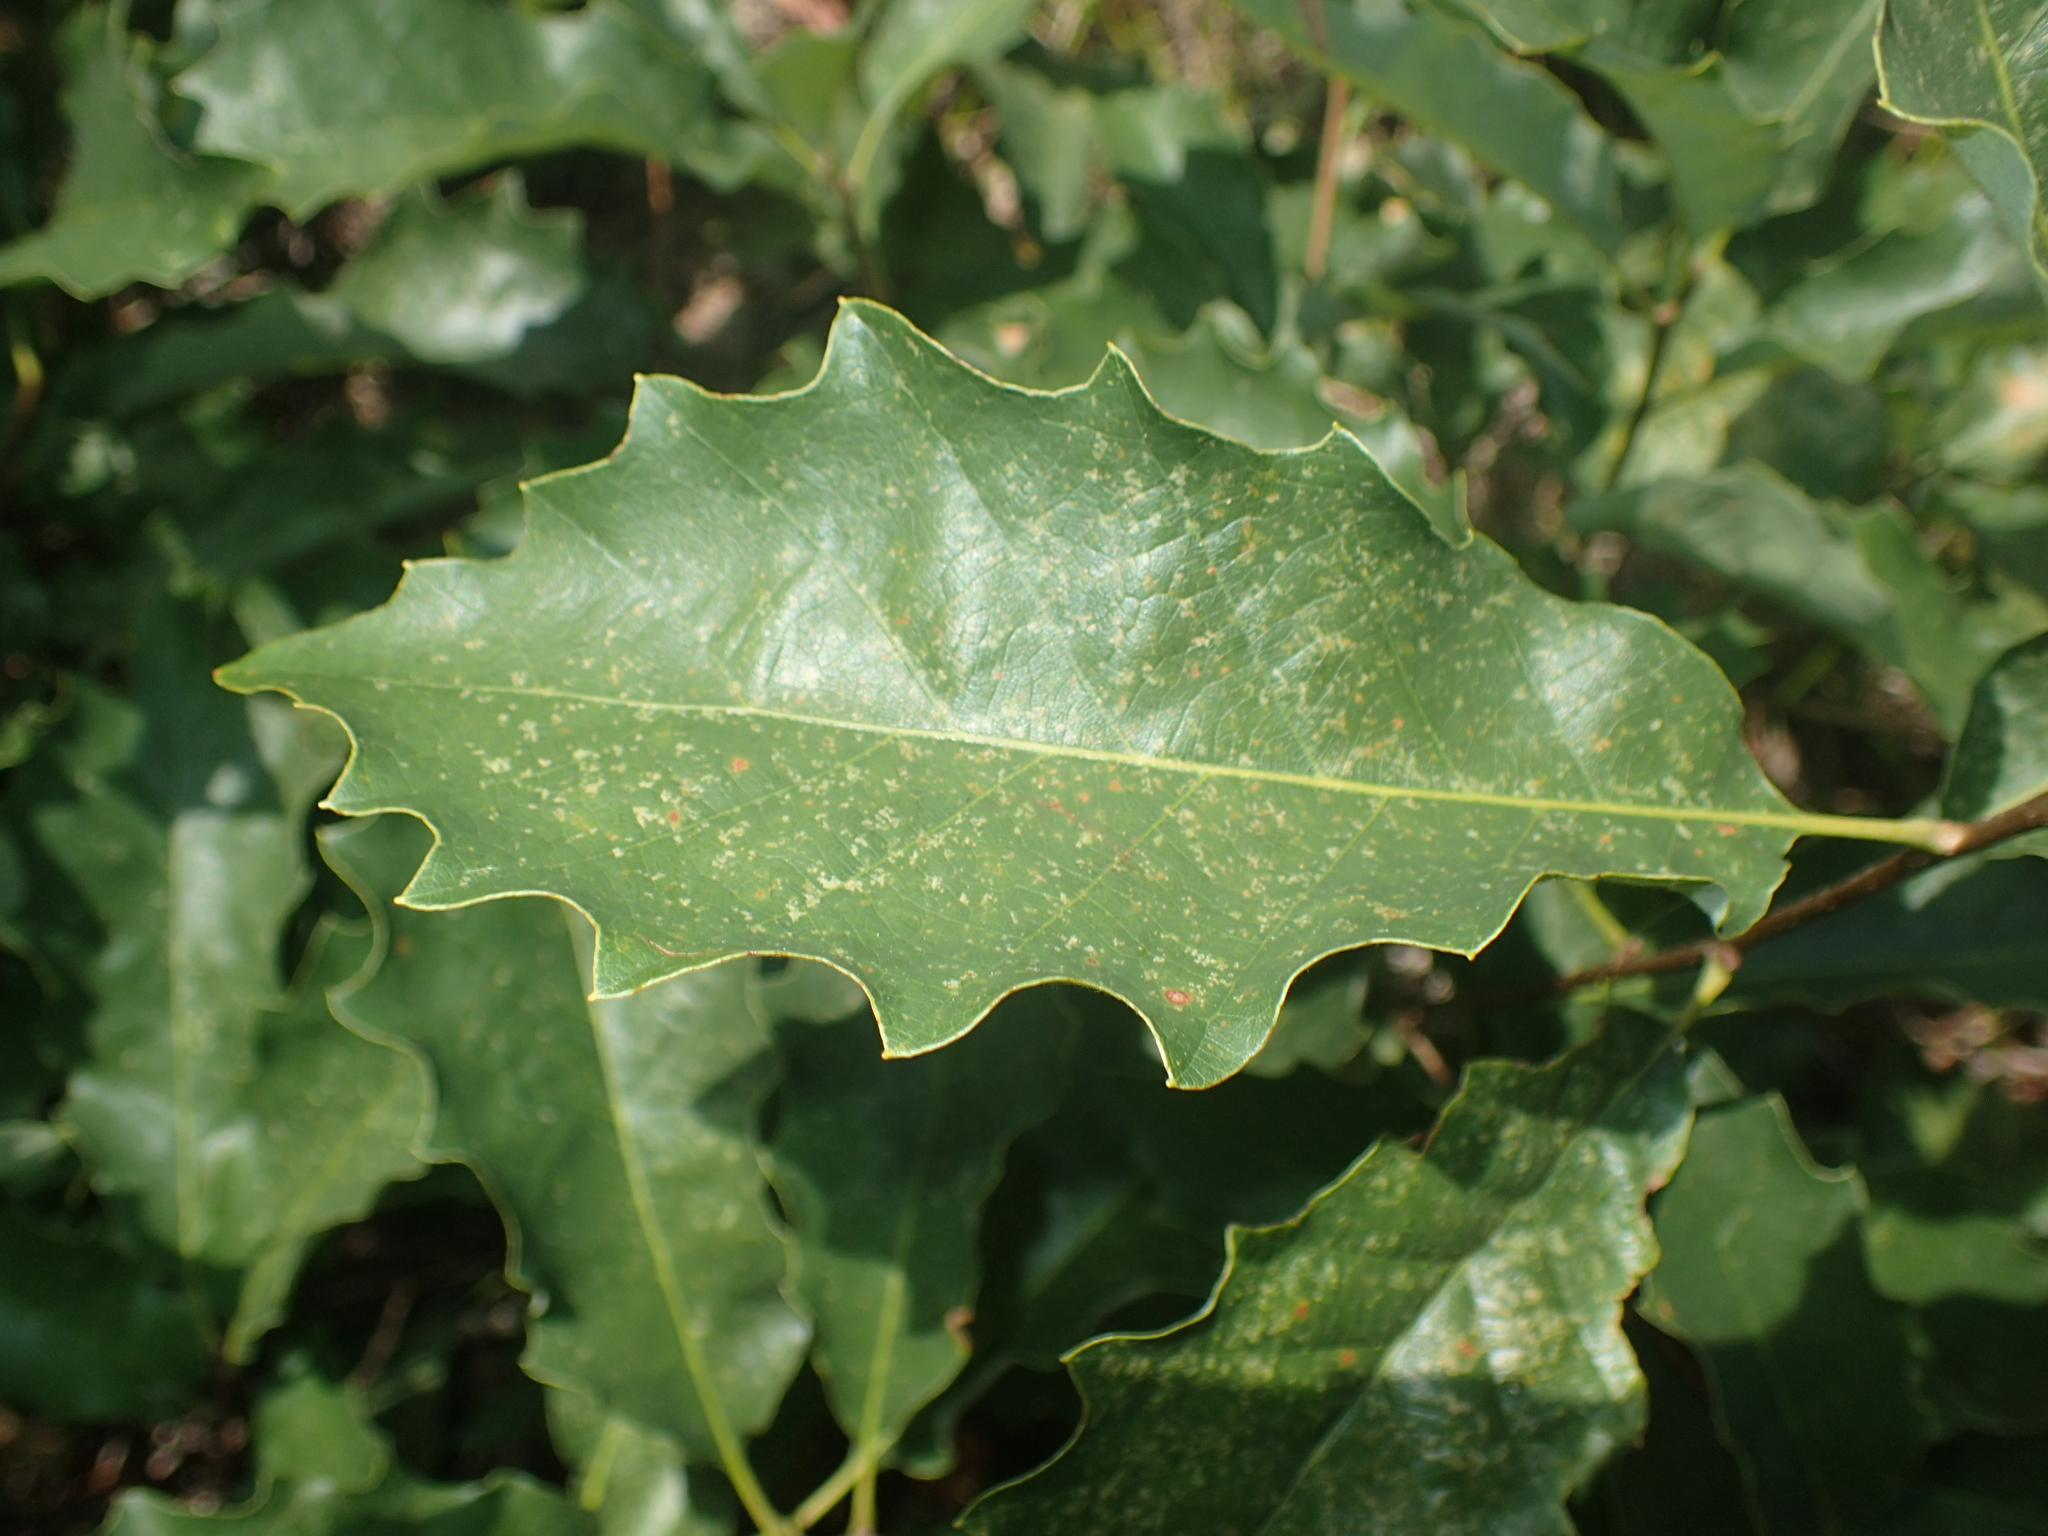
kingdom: Plantae
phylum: Tracheophyta
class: Magnoliopsida
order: Fagales
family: Fagaceae
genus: Quercus
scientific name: Quercus prinoides
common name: Dwarf chinkapin oak
